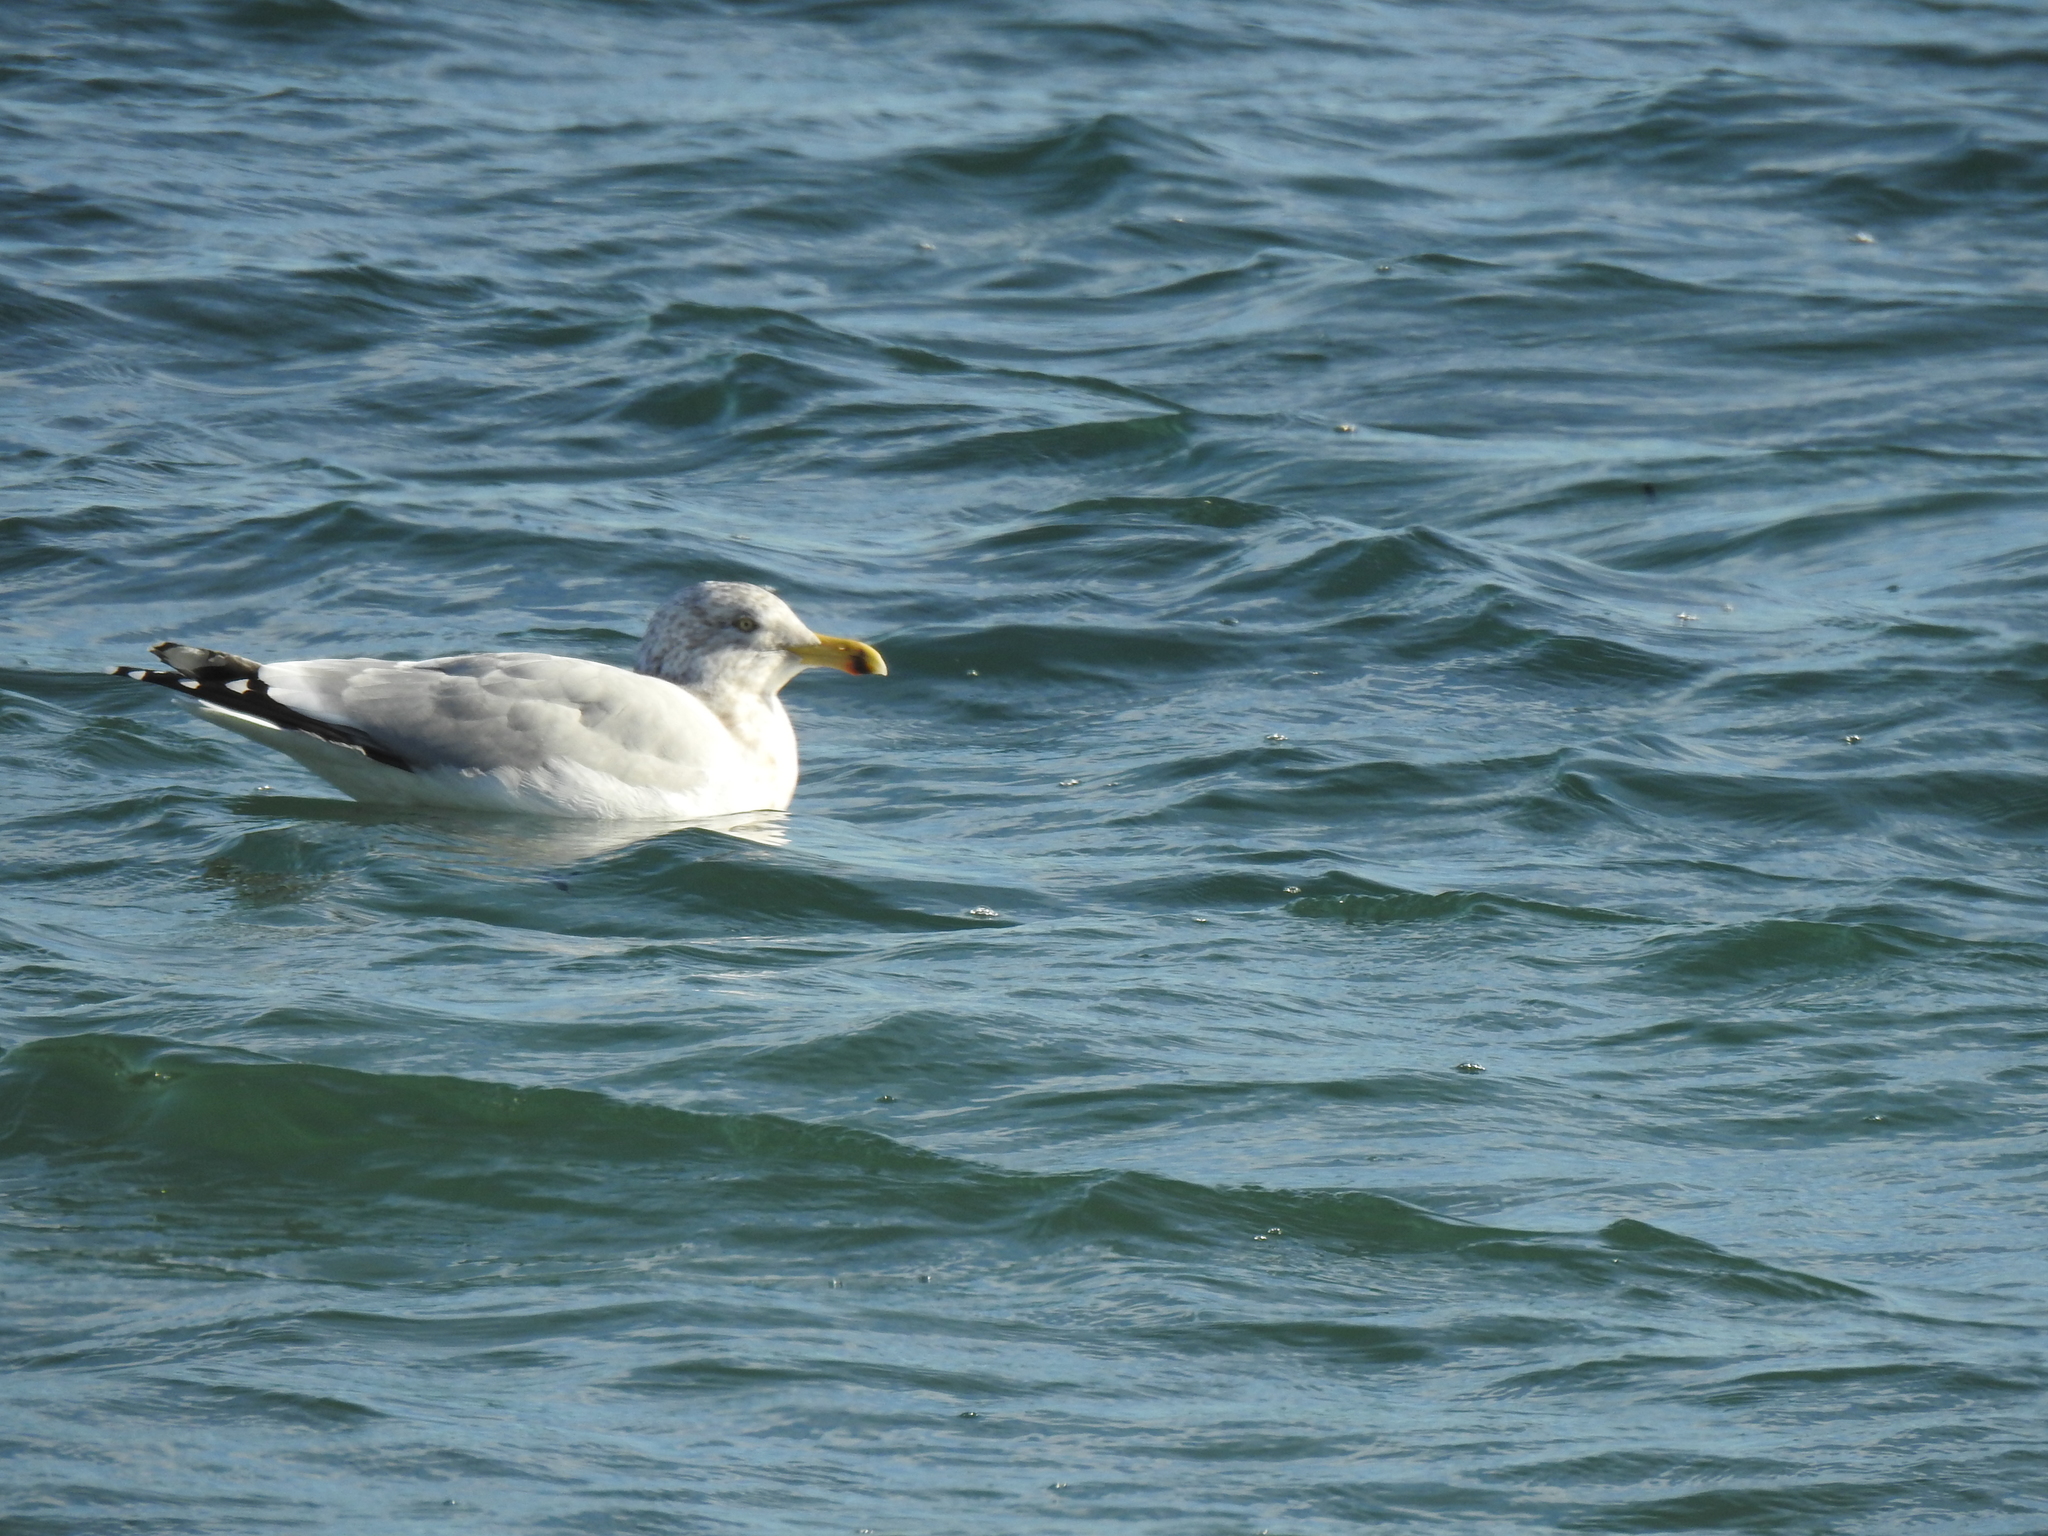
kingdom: Animalia
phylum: Chordata
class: Aves
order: Charadriiformes
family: Laridae
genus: Larus
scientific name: Larus argentatus
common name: Herring gull
